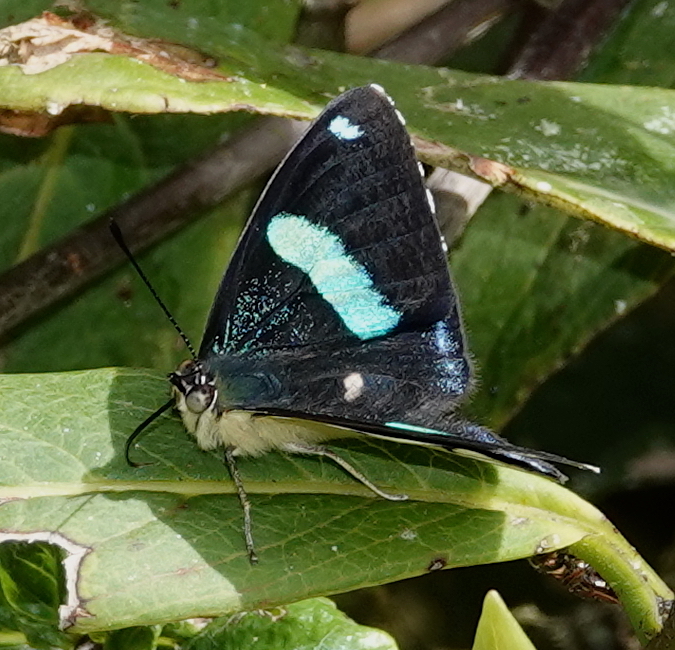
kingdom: Animalia
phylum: Arthropoda
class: Insecta
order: Lepidoptera
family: Nymphalidae
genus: Perisama
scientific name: Perisama oppelii
